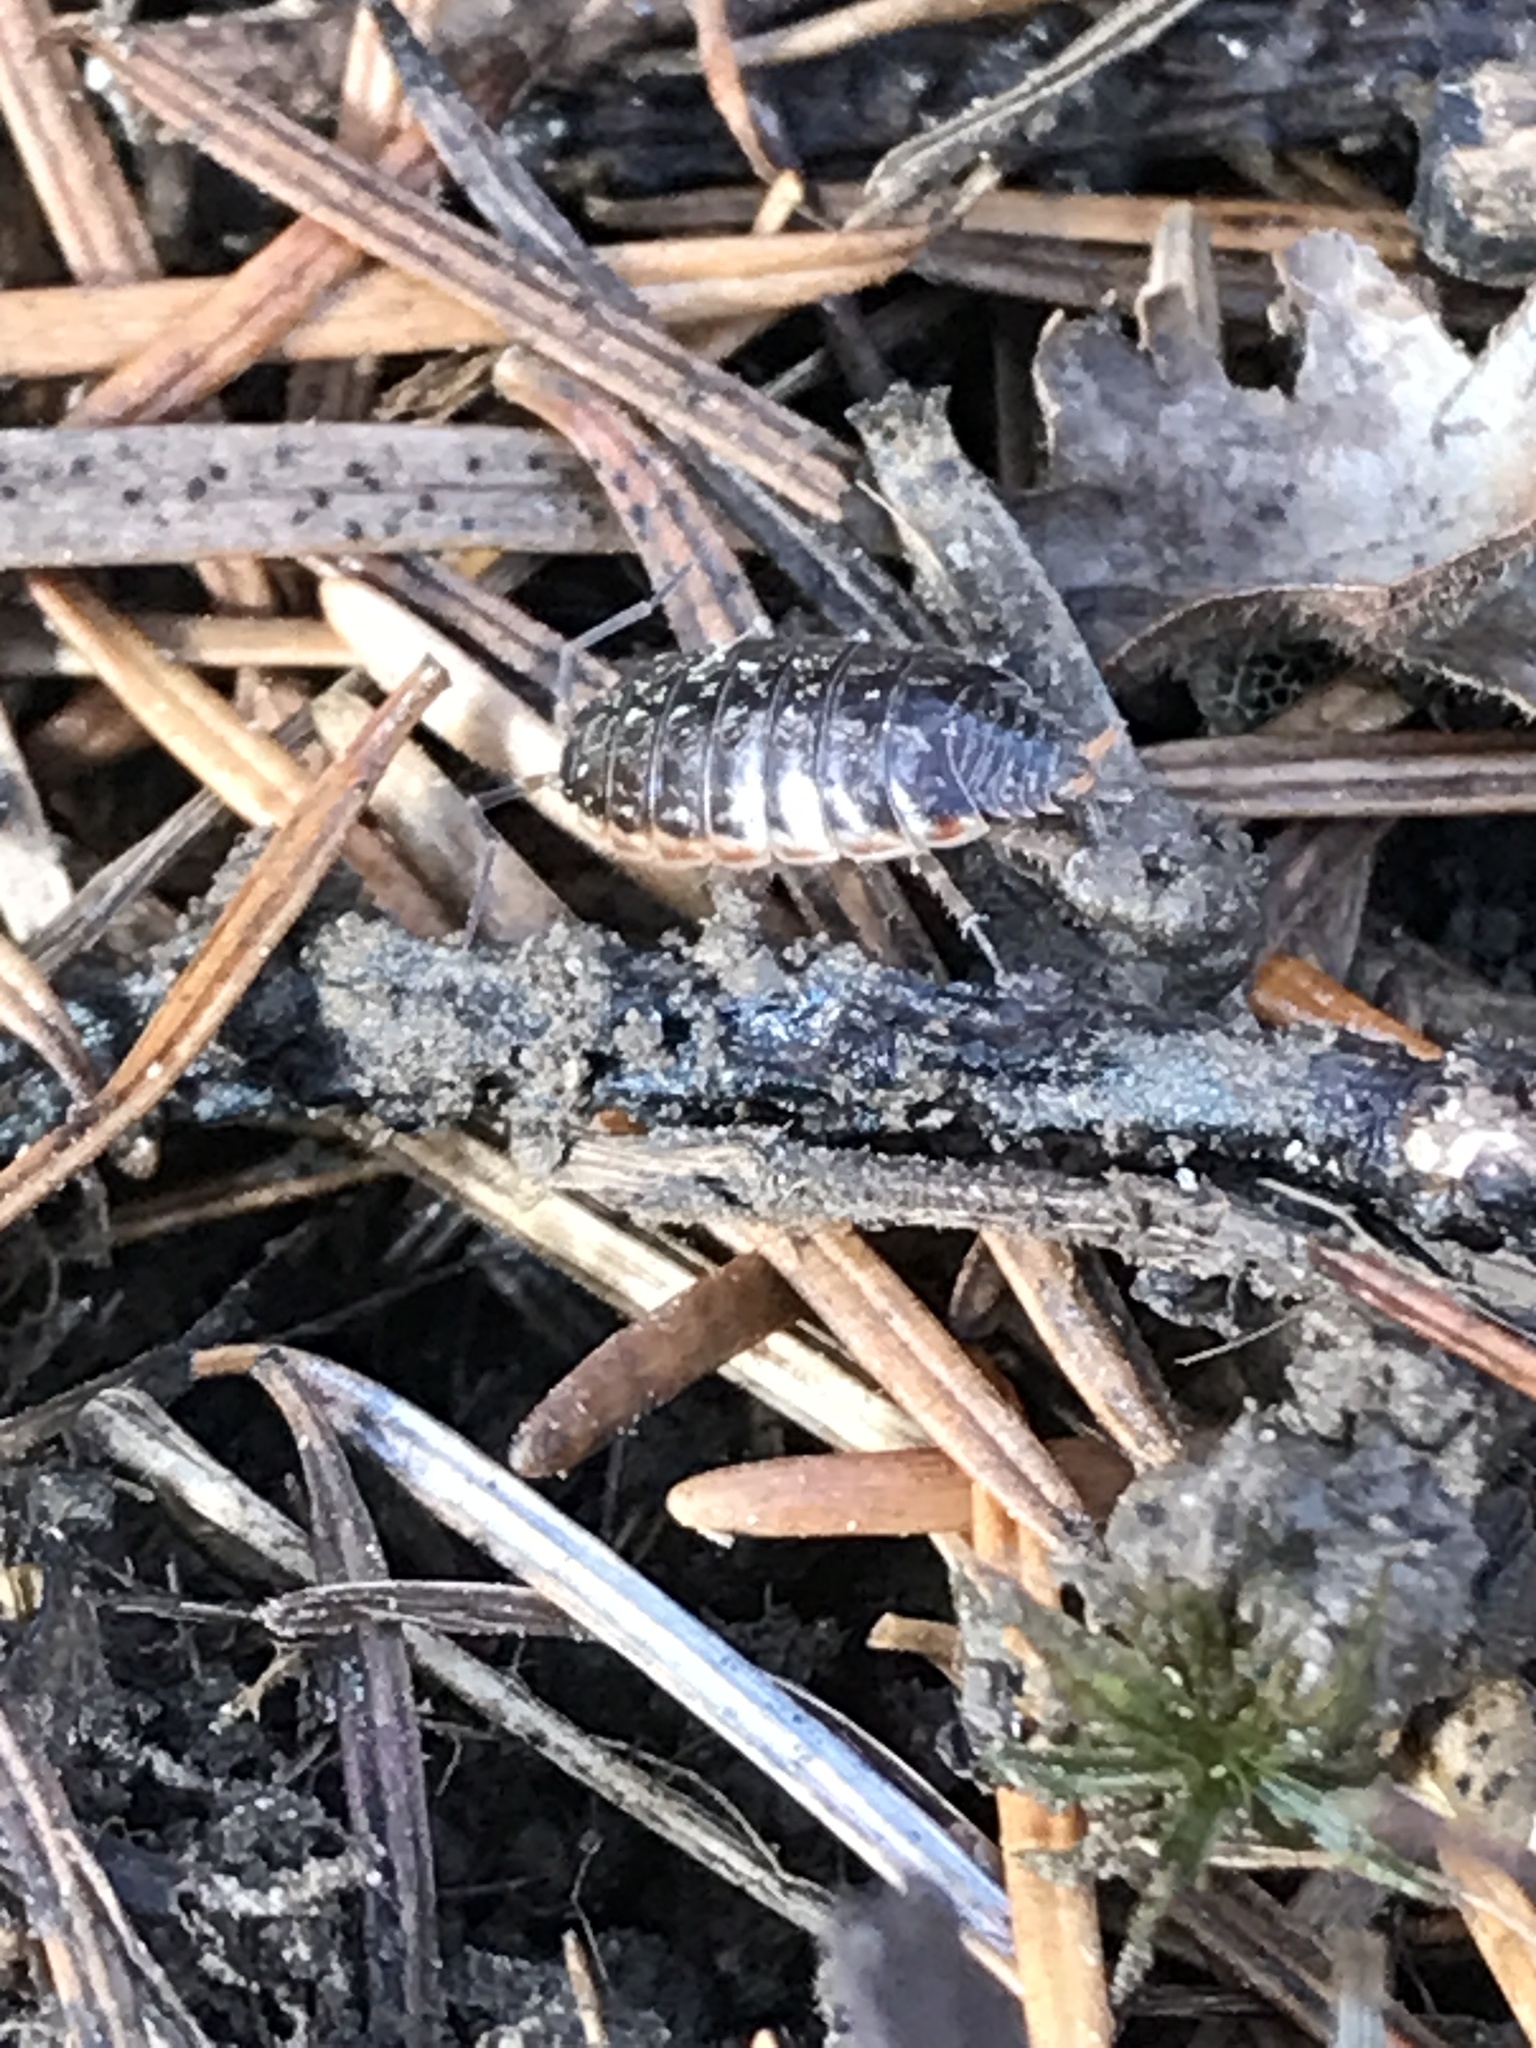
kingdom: Animalia
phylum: Arthropoda
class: Malacostraca
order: Isopoda
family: Philosciidae
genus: Philoscia
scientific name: Philoscia muscorum
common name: Common striped woodlouse
